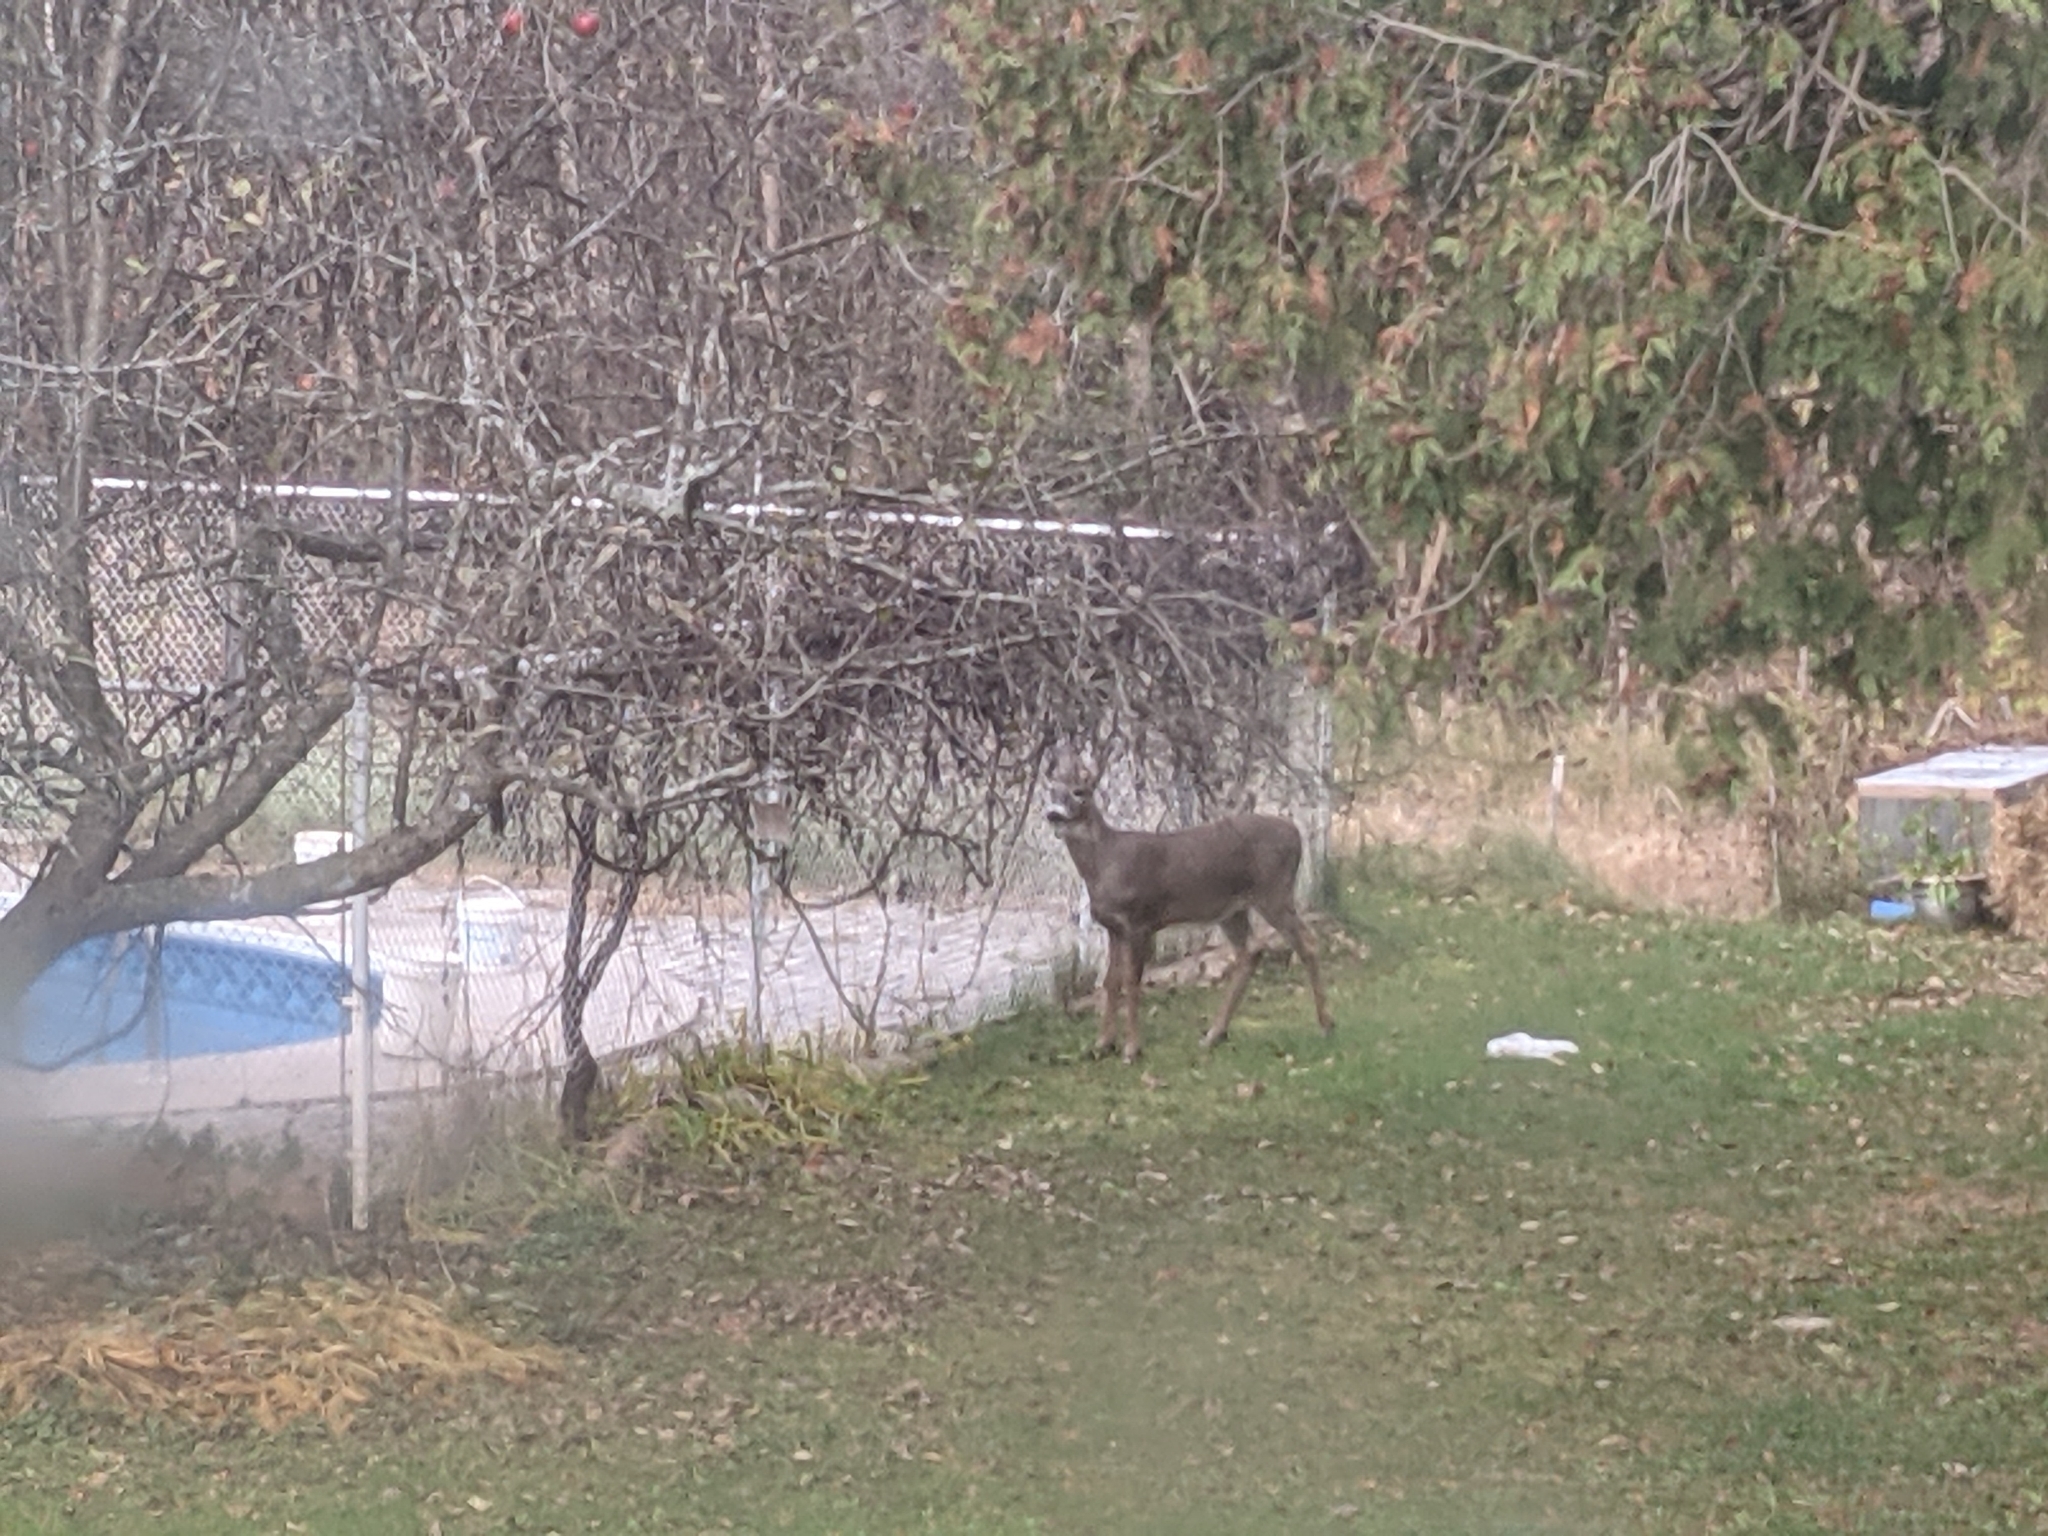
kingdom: Animalia
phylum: Chordata
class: Mammalia
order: Artiodactyla
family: Cervidae
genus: Odocoileus
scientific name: Odocoileus virginianus
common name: White-tailed deer
